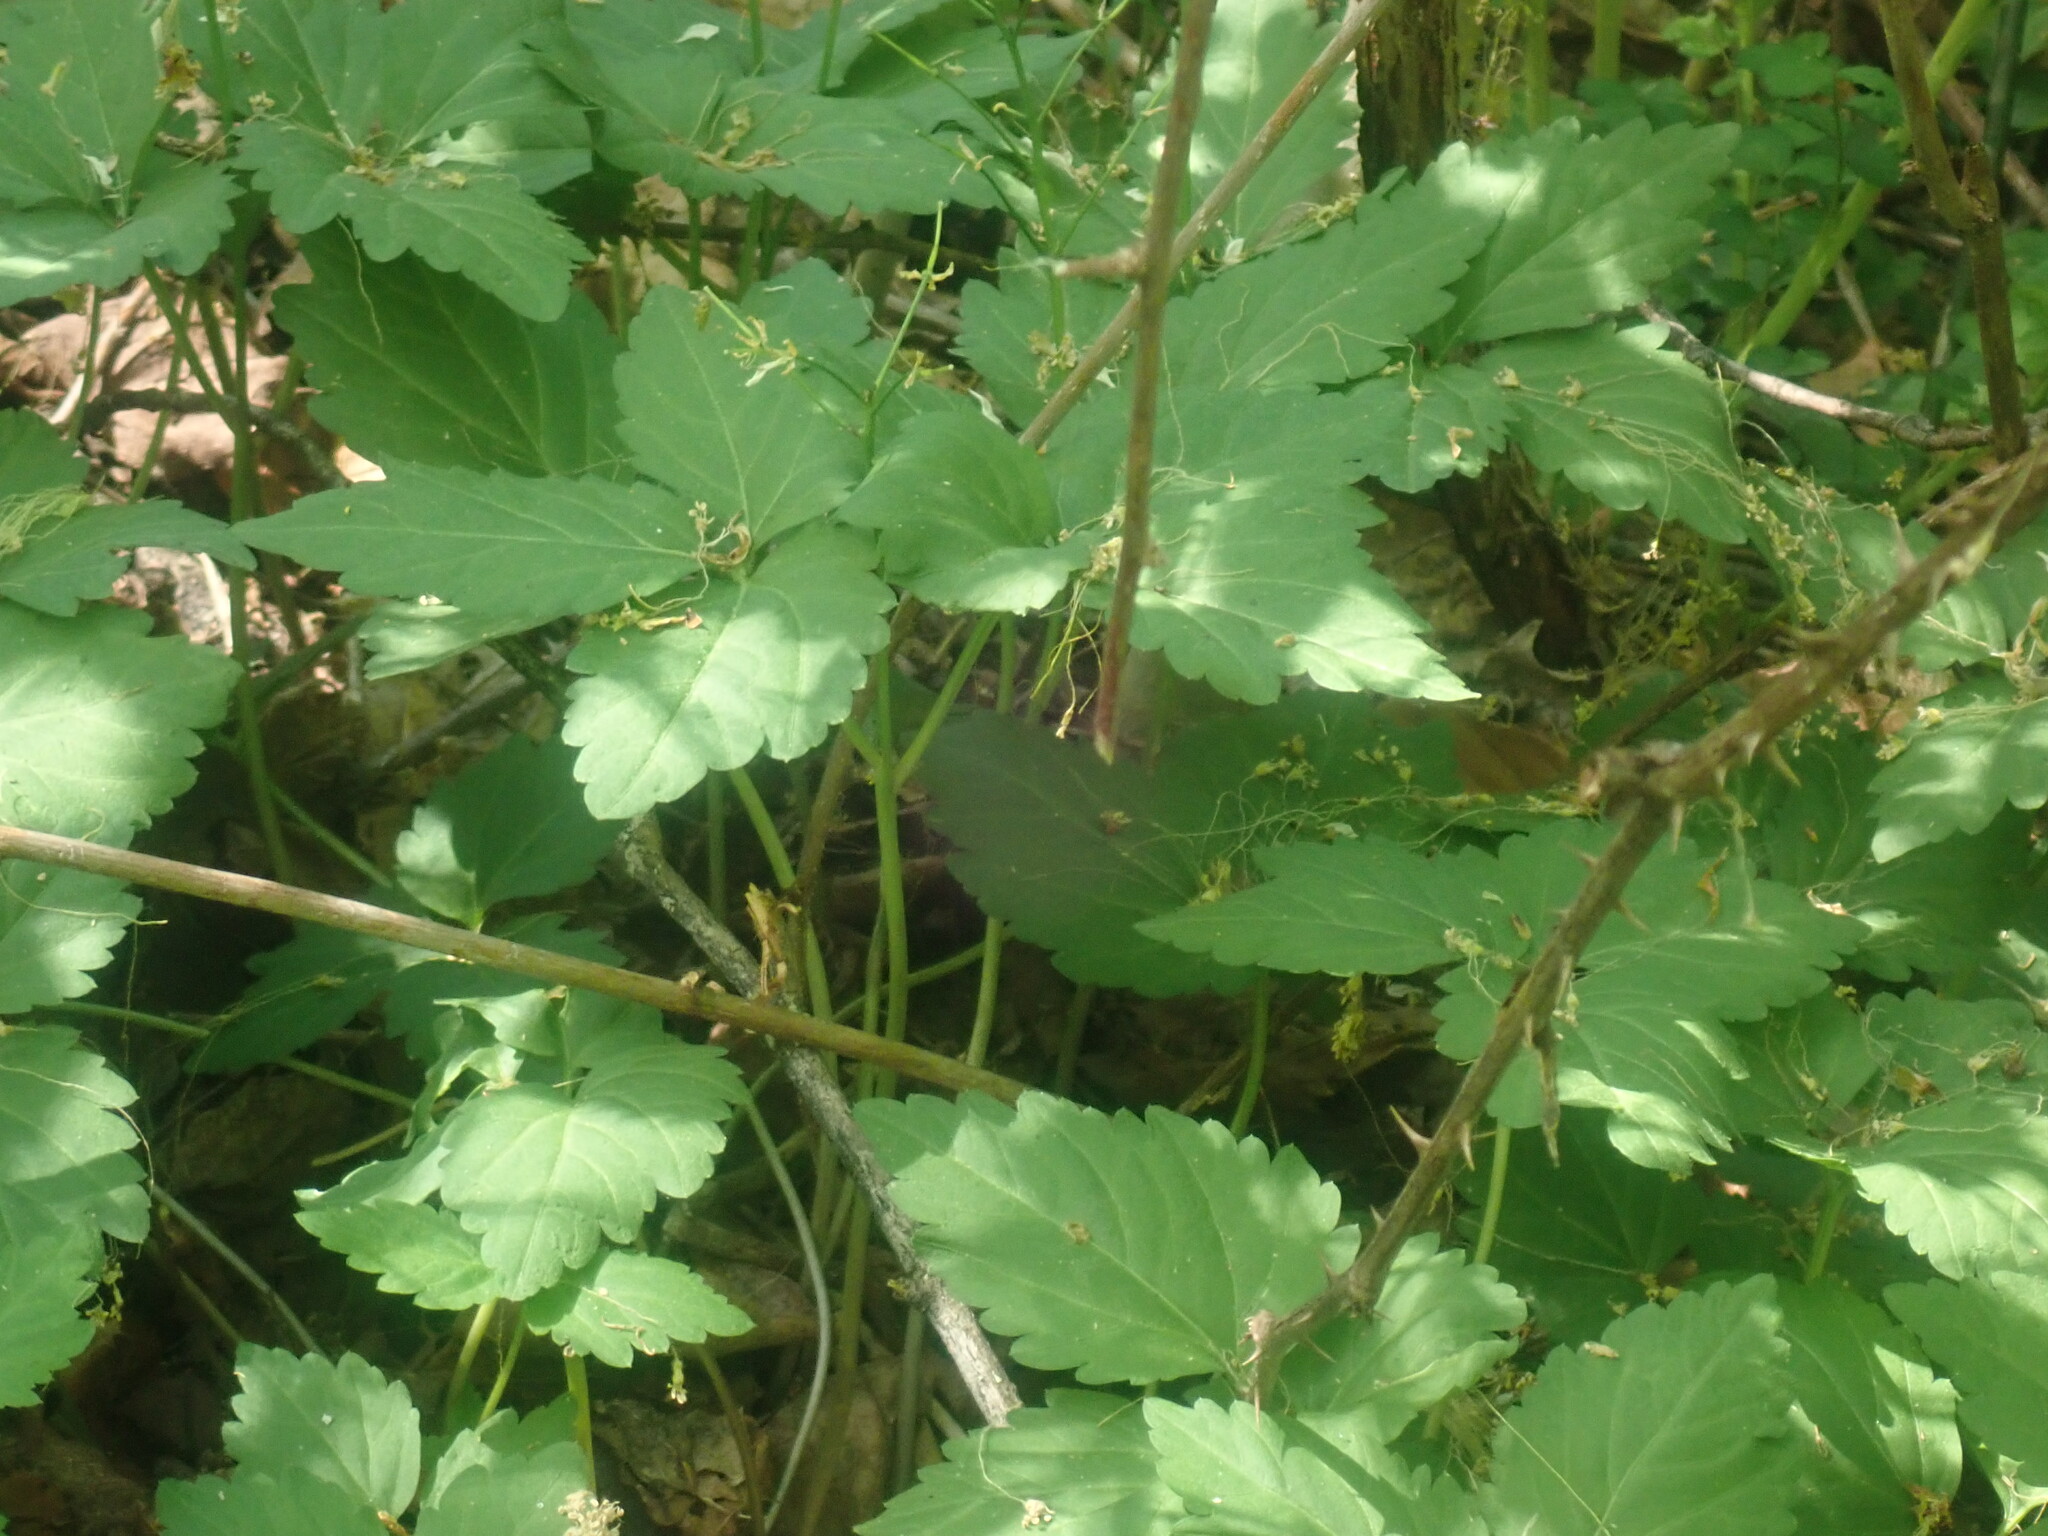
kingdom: Plantae
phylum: Tracheophyta
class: Magnoliopsida
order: Brassicales
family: Brassicaceae
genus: Cardamine
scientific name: Cardamine diphylla
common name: Broad-leaved toothwort
